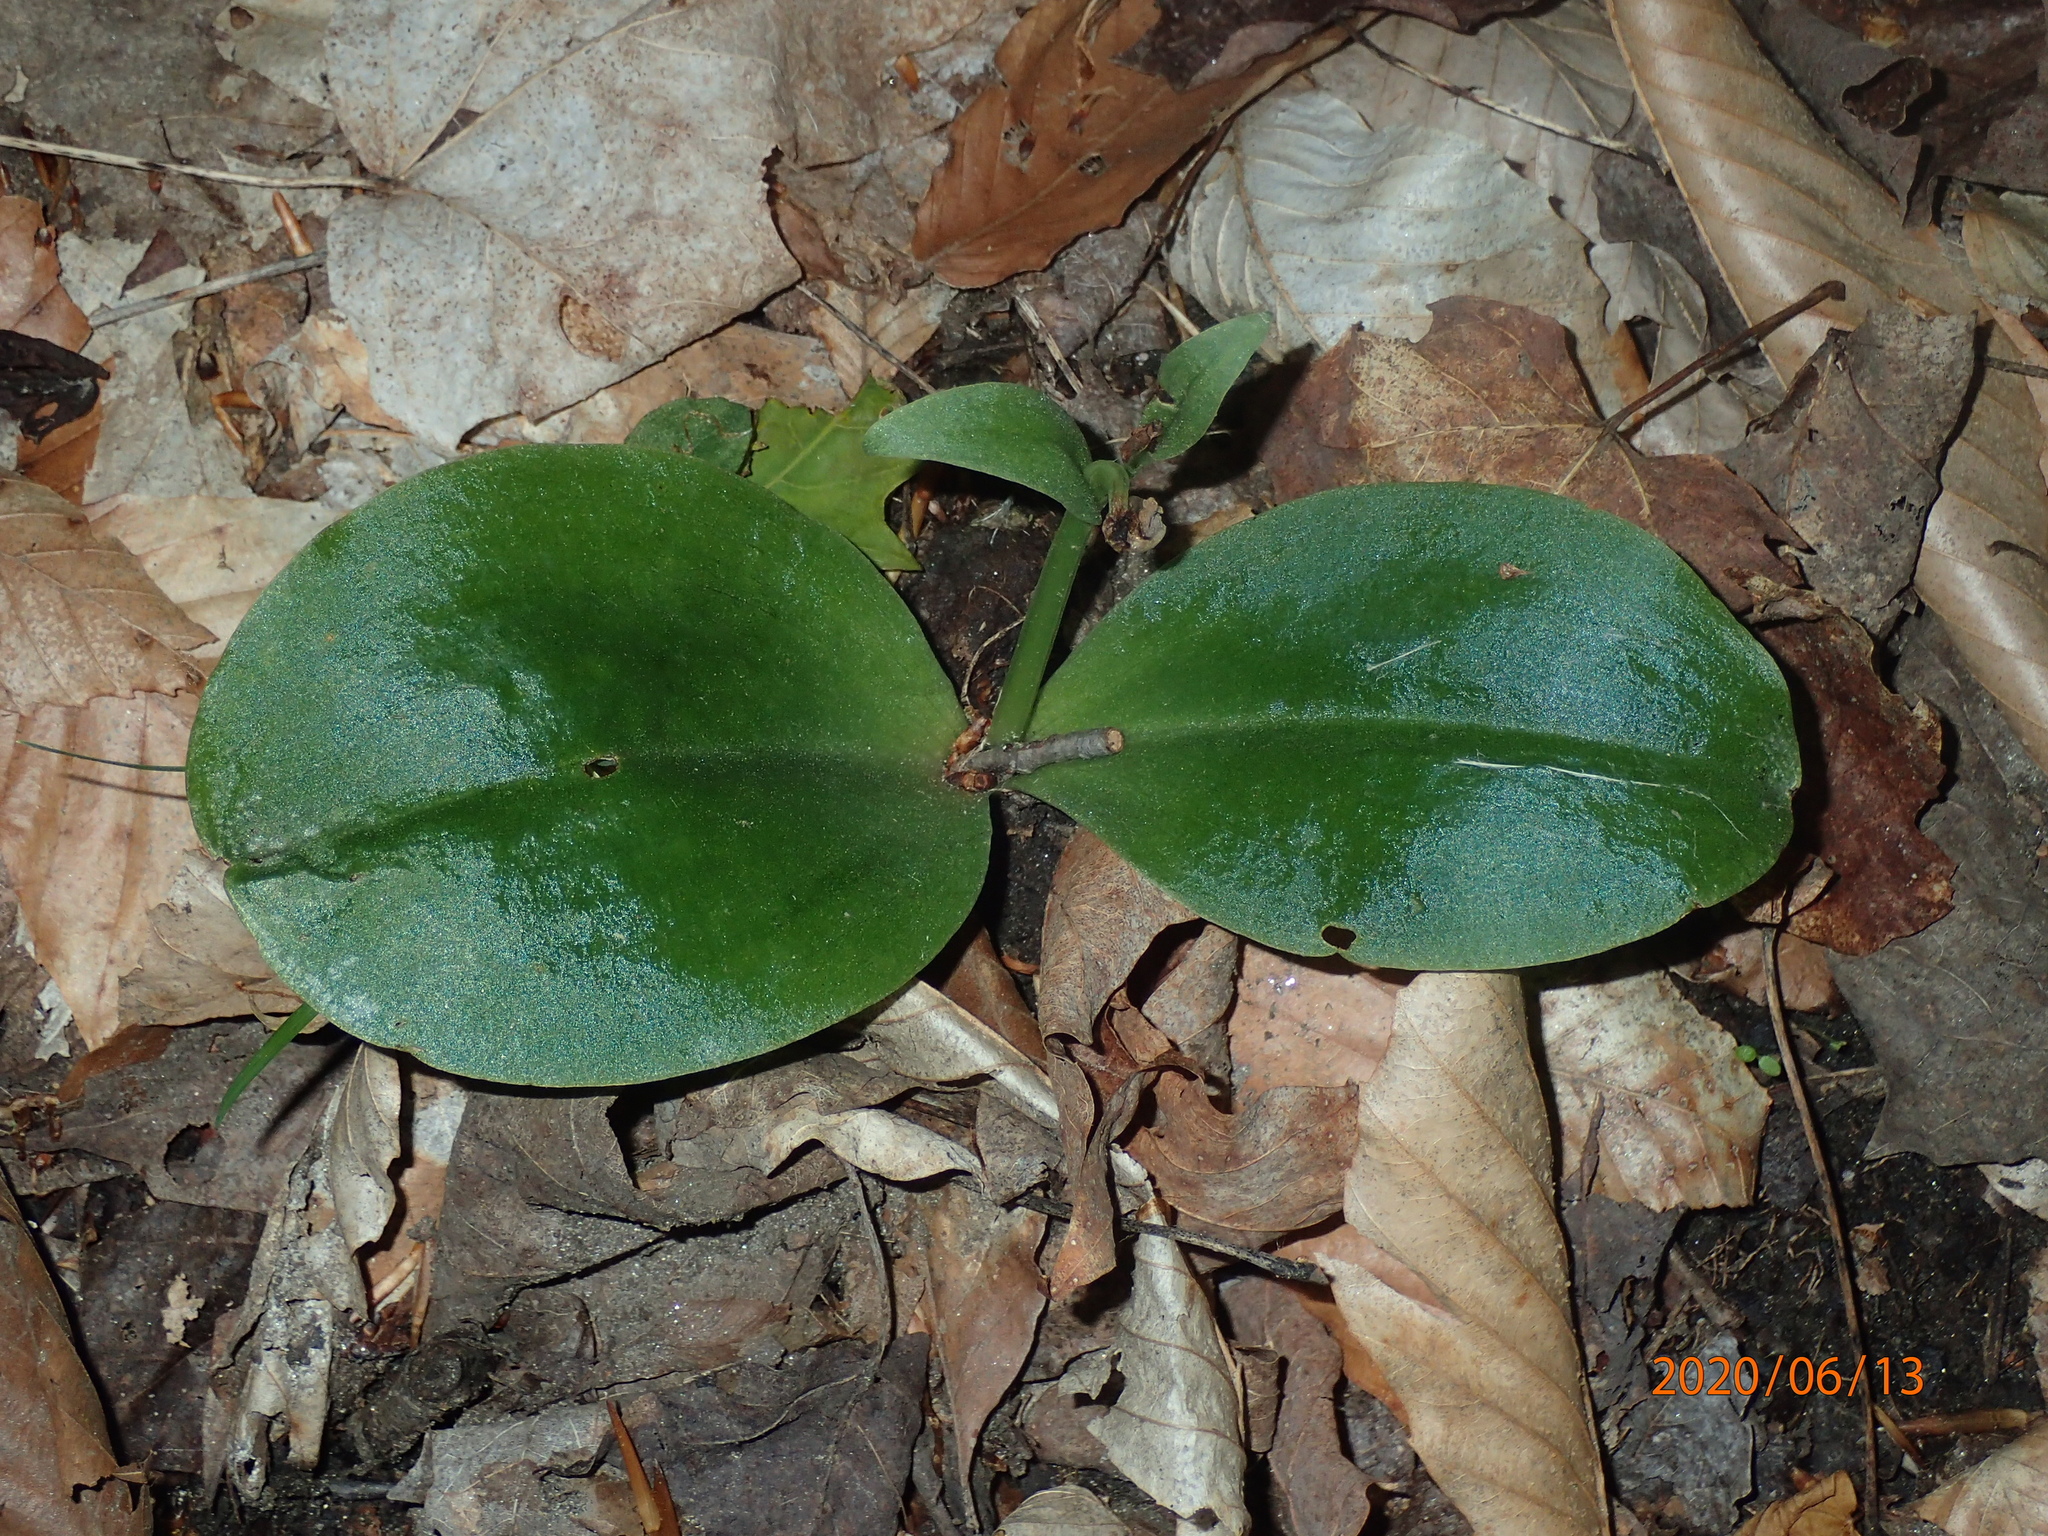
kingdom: Plantae
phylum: Tracheophyta
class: Liliopsida
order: Asparagales
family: Orchidaceae
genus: Galearis
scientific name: Galearis spectabilis
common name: Purple-hooded orchis
